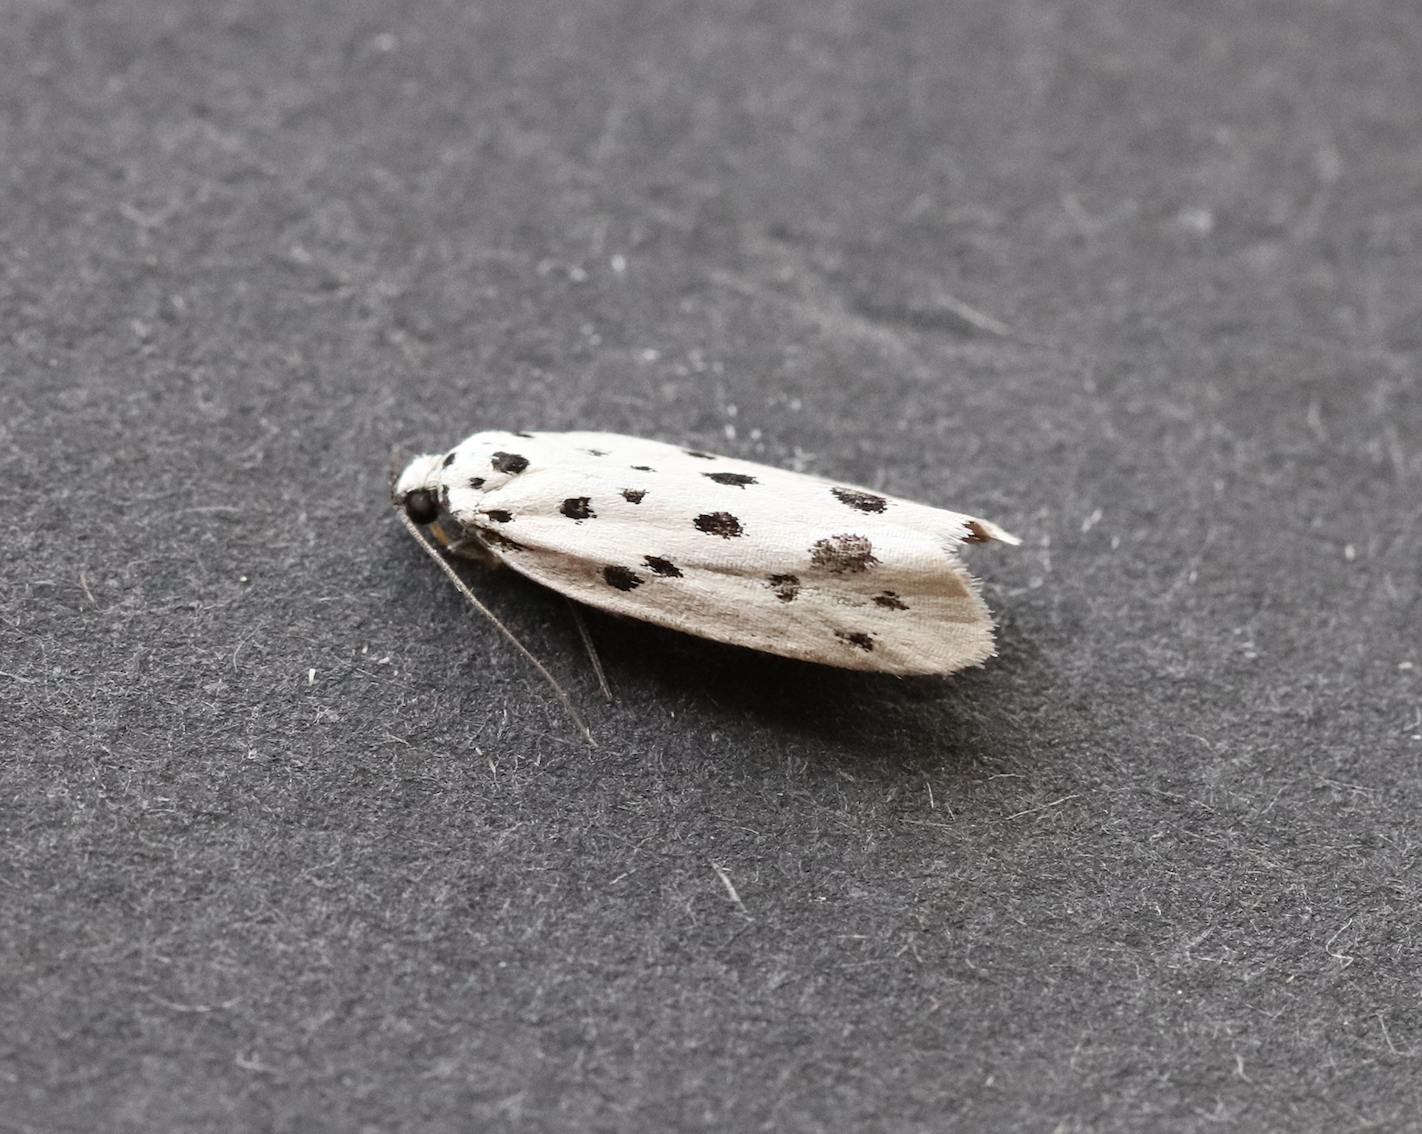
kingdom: Animalia
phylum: Arthropoda
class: Insecta
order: Lepidoptera
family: Ethmiidae
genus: Ethmia
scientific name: Ethmia dodecea
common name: Dotted ermel
